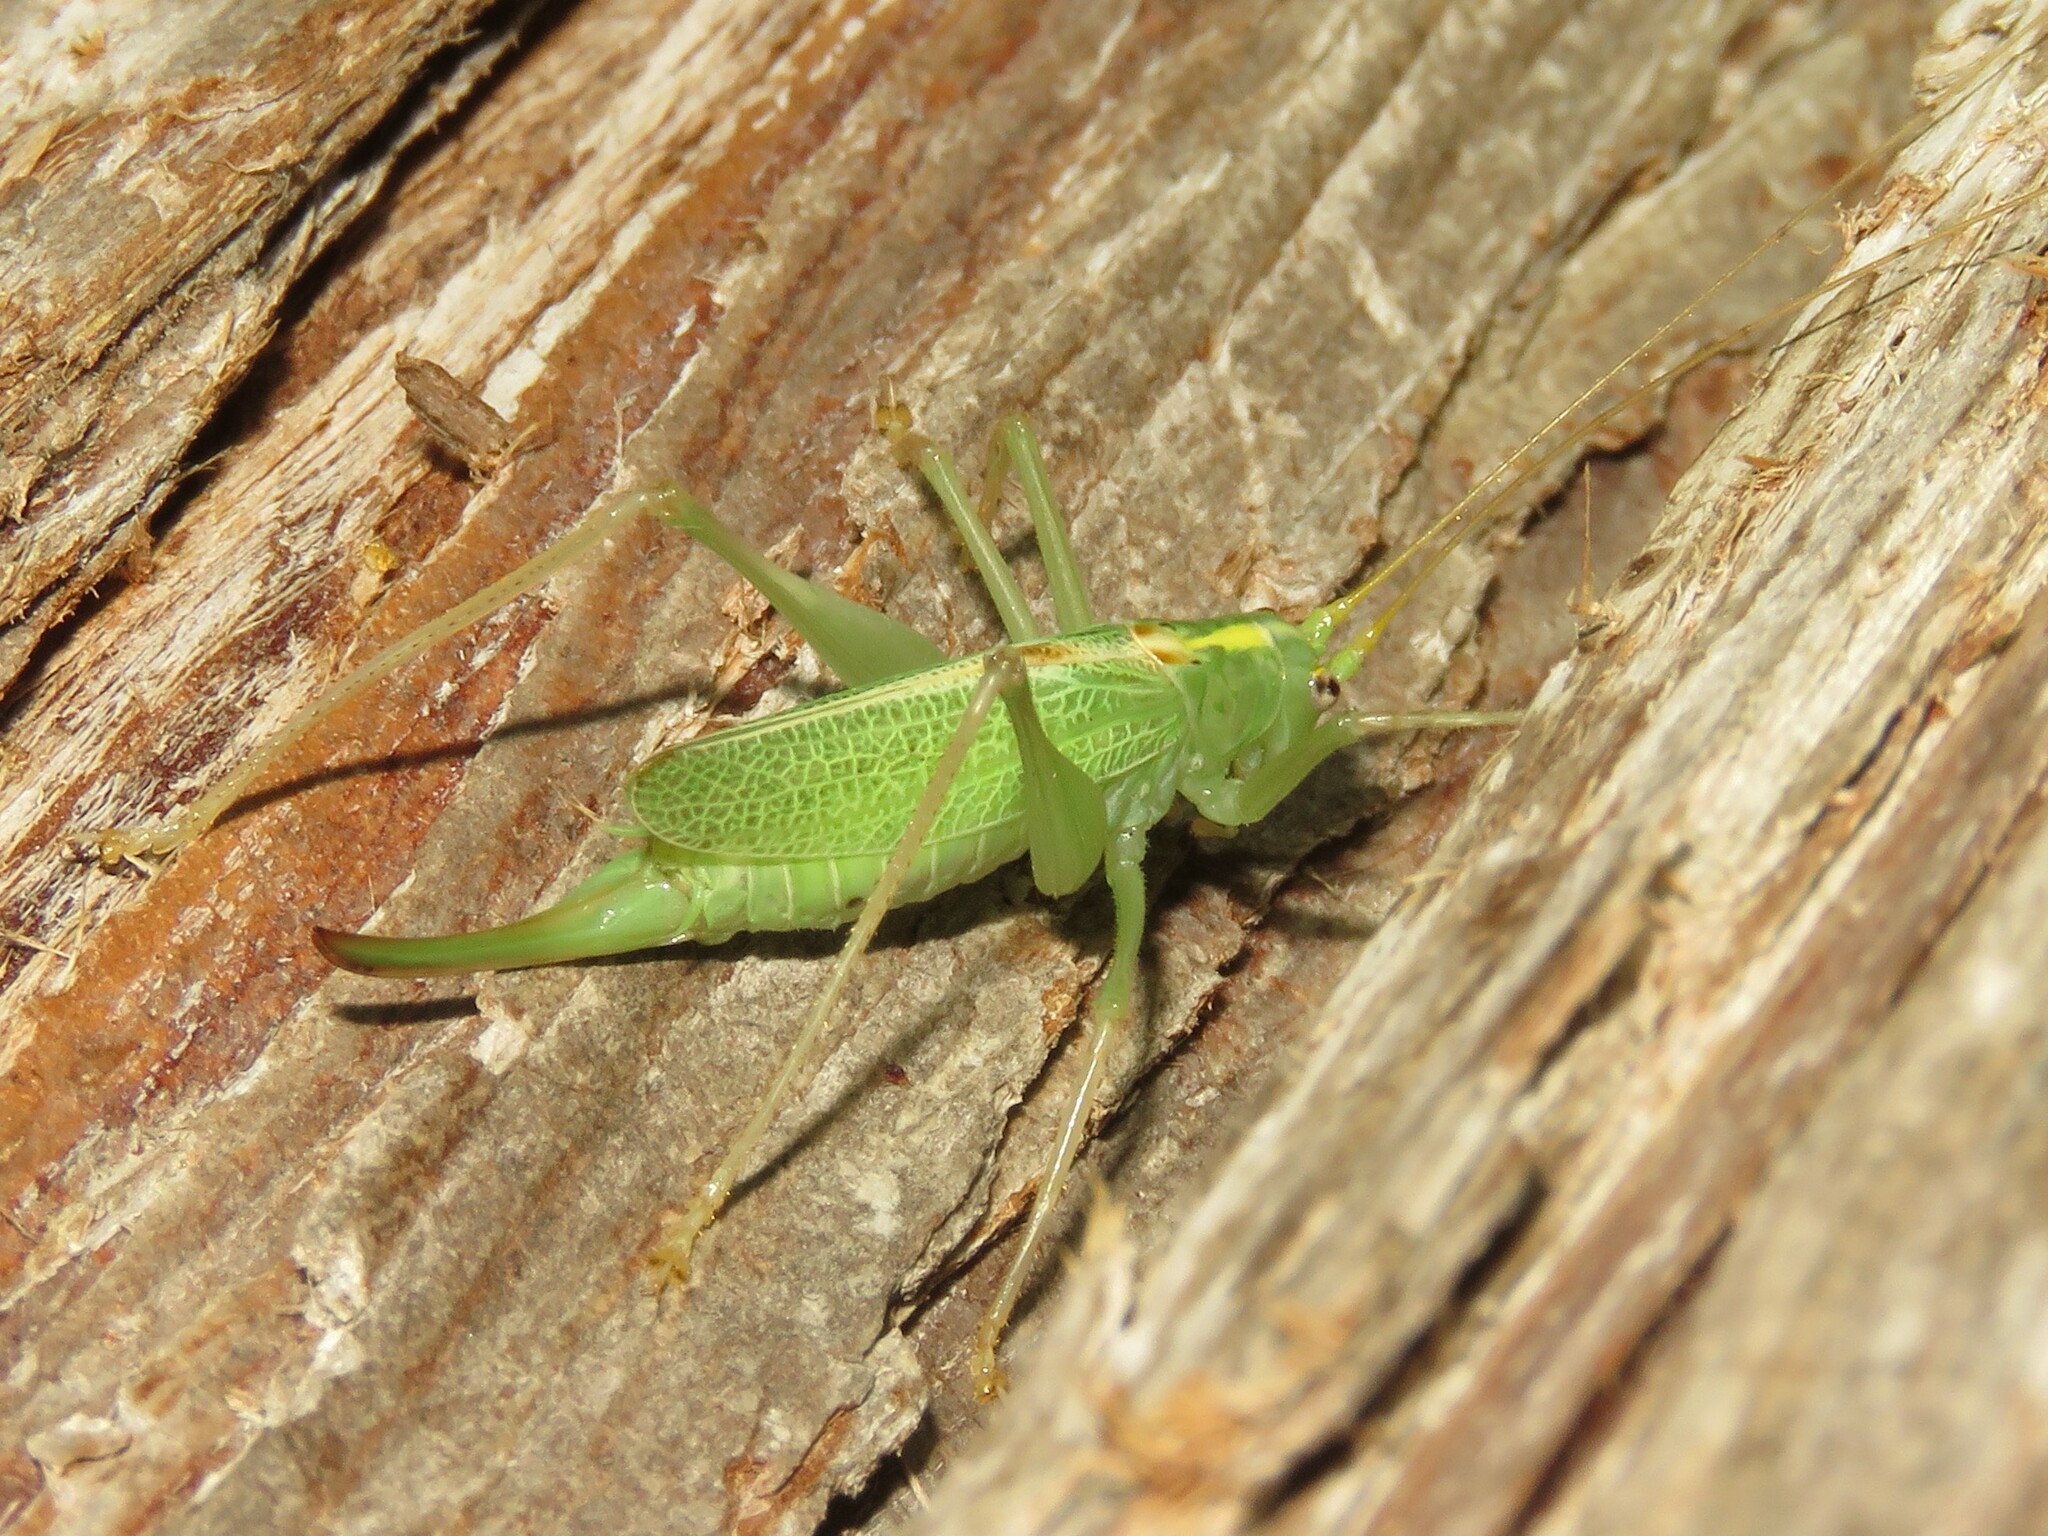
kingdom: Animalia
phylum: Arthropoda
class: Insecta
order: Orthoptera
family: Tettigoniidae
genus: Meconema
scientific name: Meconema thalassinum
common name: Oak bush-cricket
